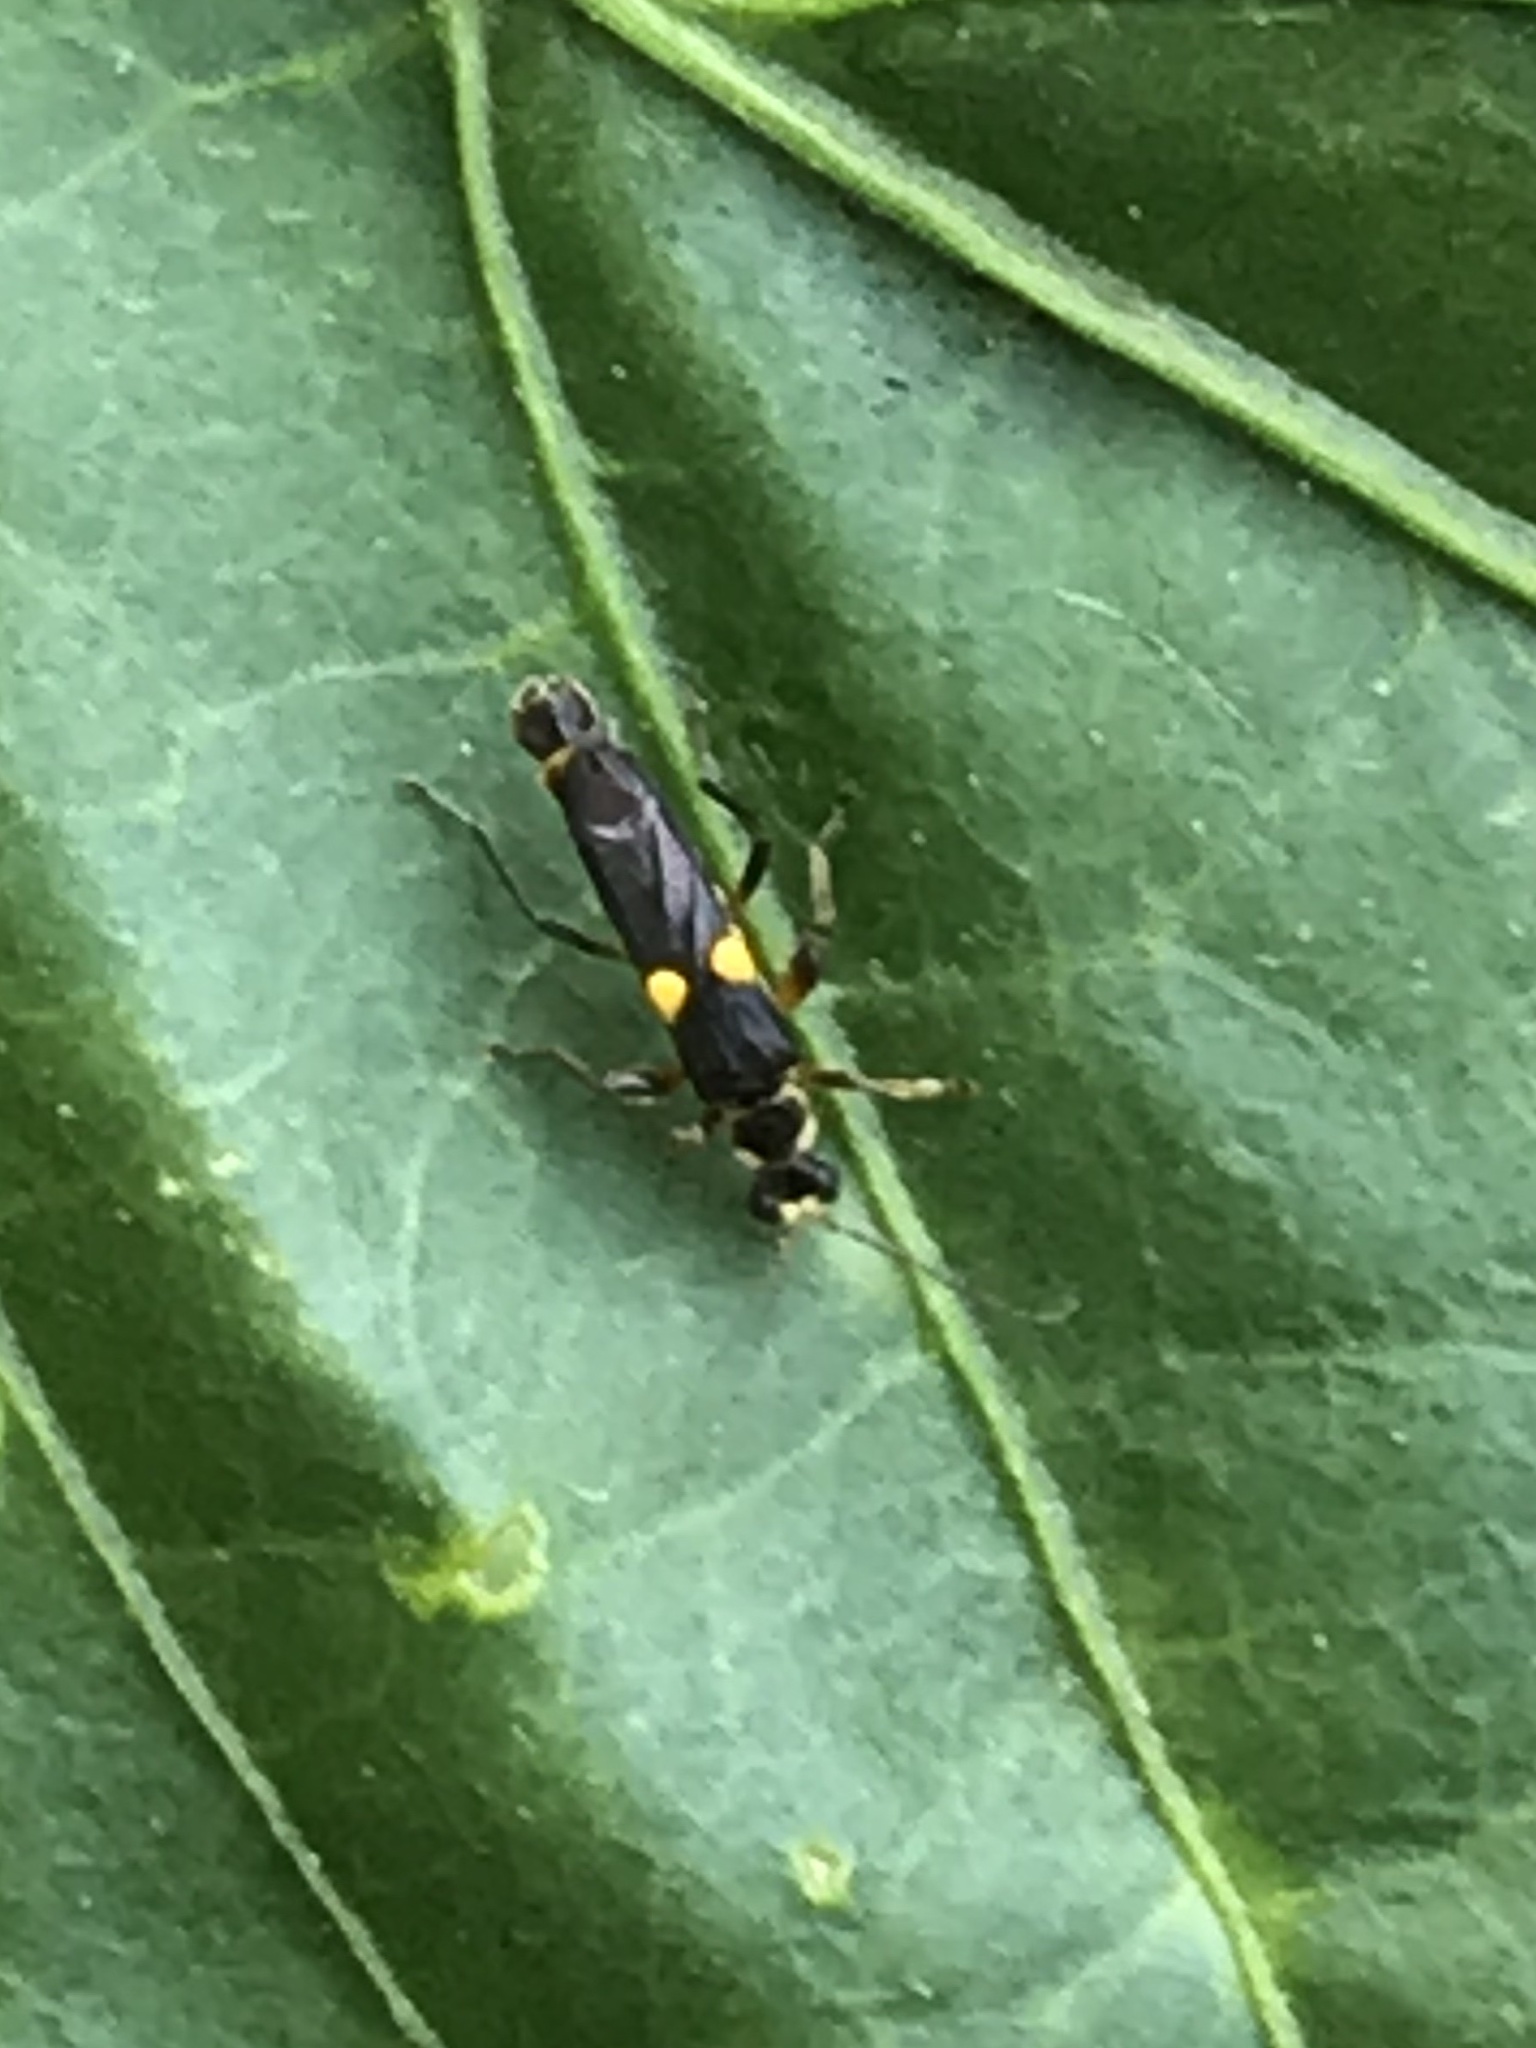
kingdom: Animalia
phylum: Arthropoda
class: Insecta
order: Coleoptera
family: Cantharidae
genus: Trypherus
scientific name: Trypherus
